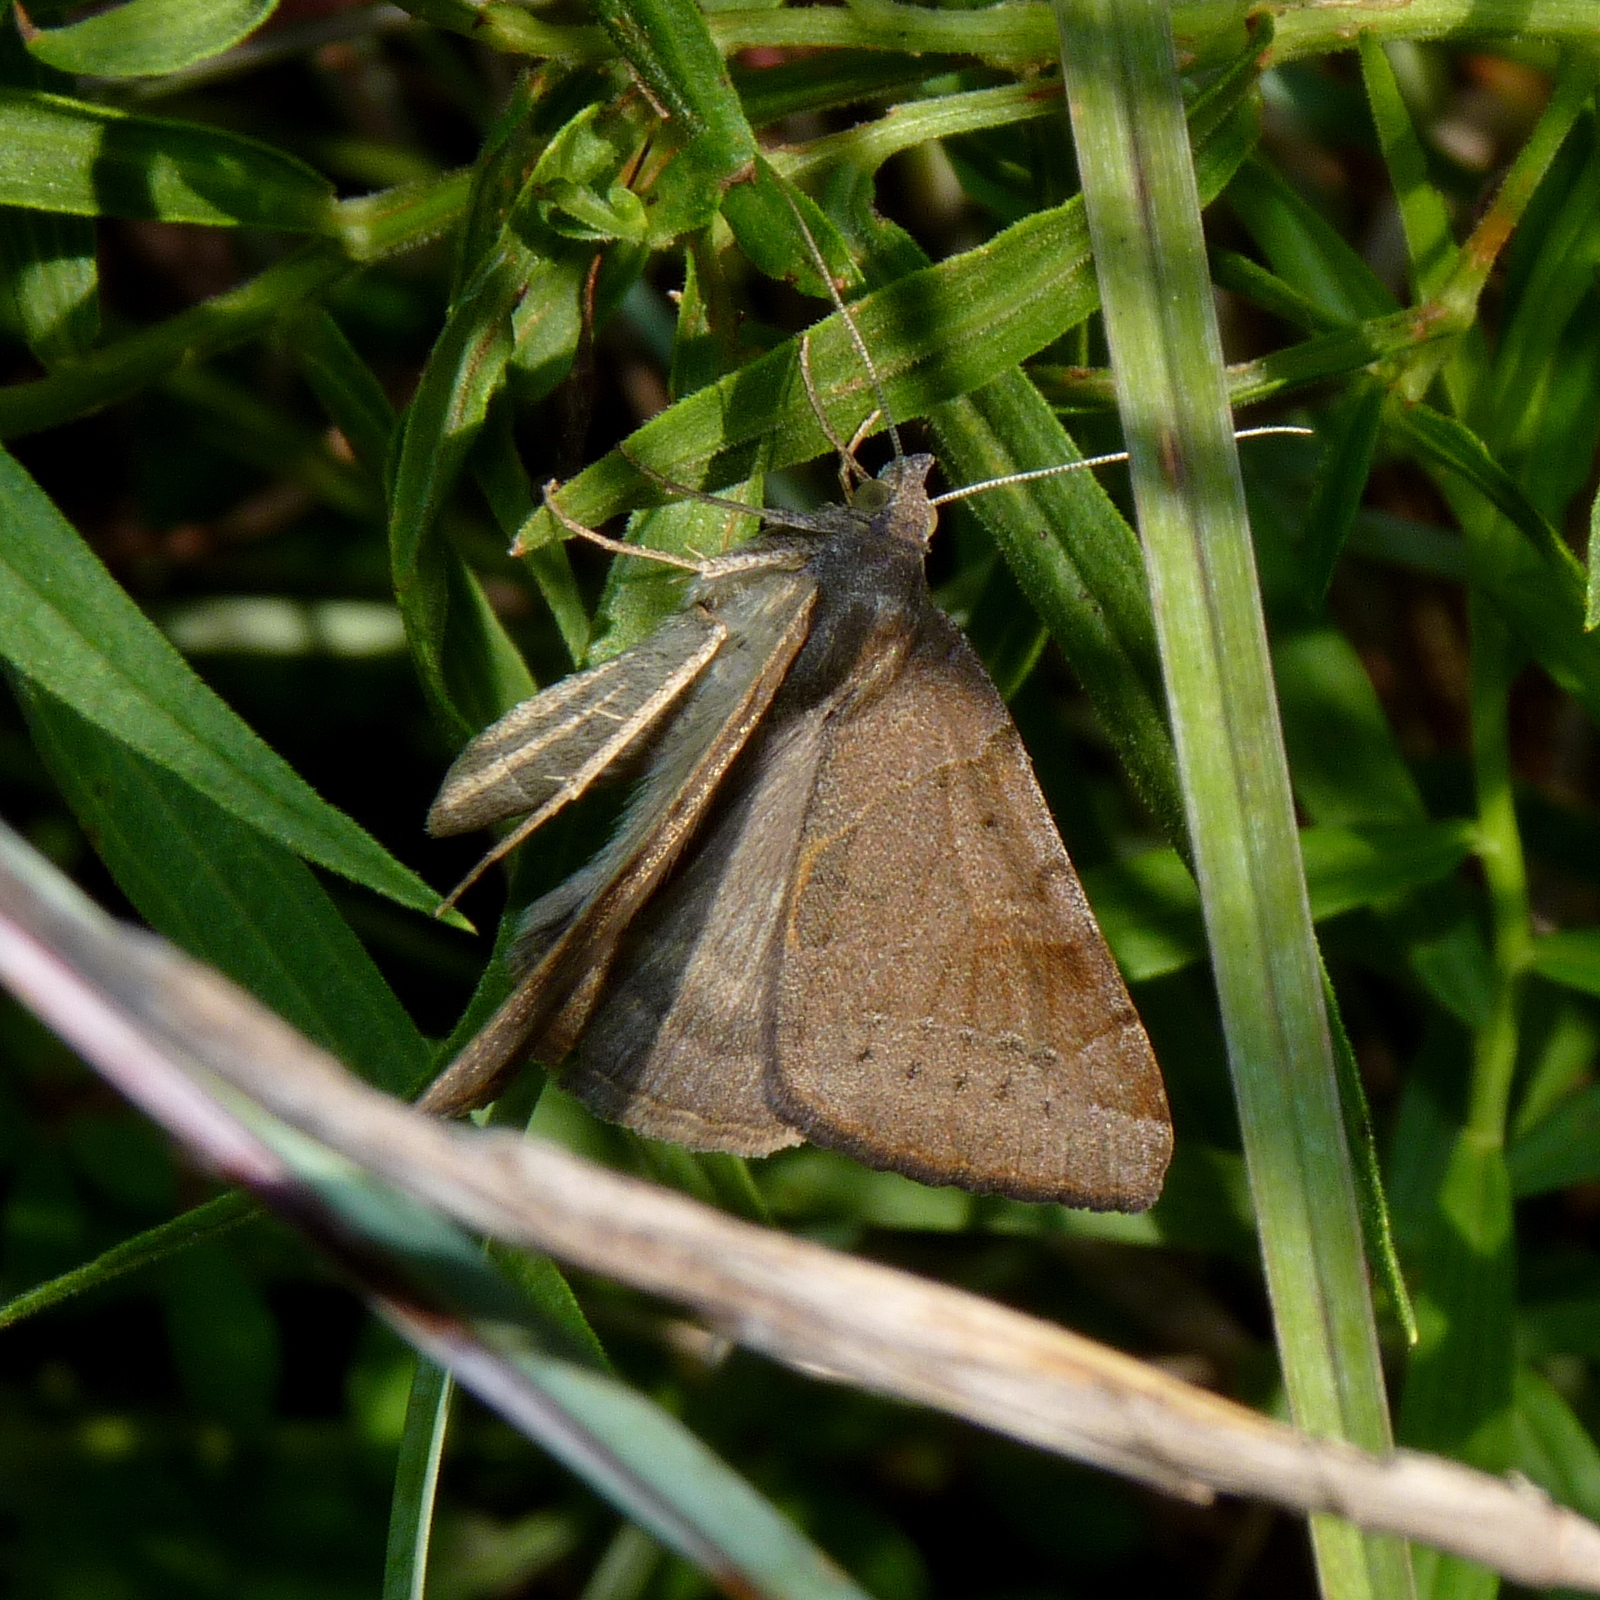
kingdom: Animalia
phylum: Arthropoda
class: Insecta
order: Lepidoptera
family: Erebidae
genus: Caenurgina
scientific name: Caenurgina erechtea
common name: Forage looper moth
